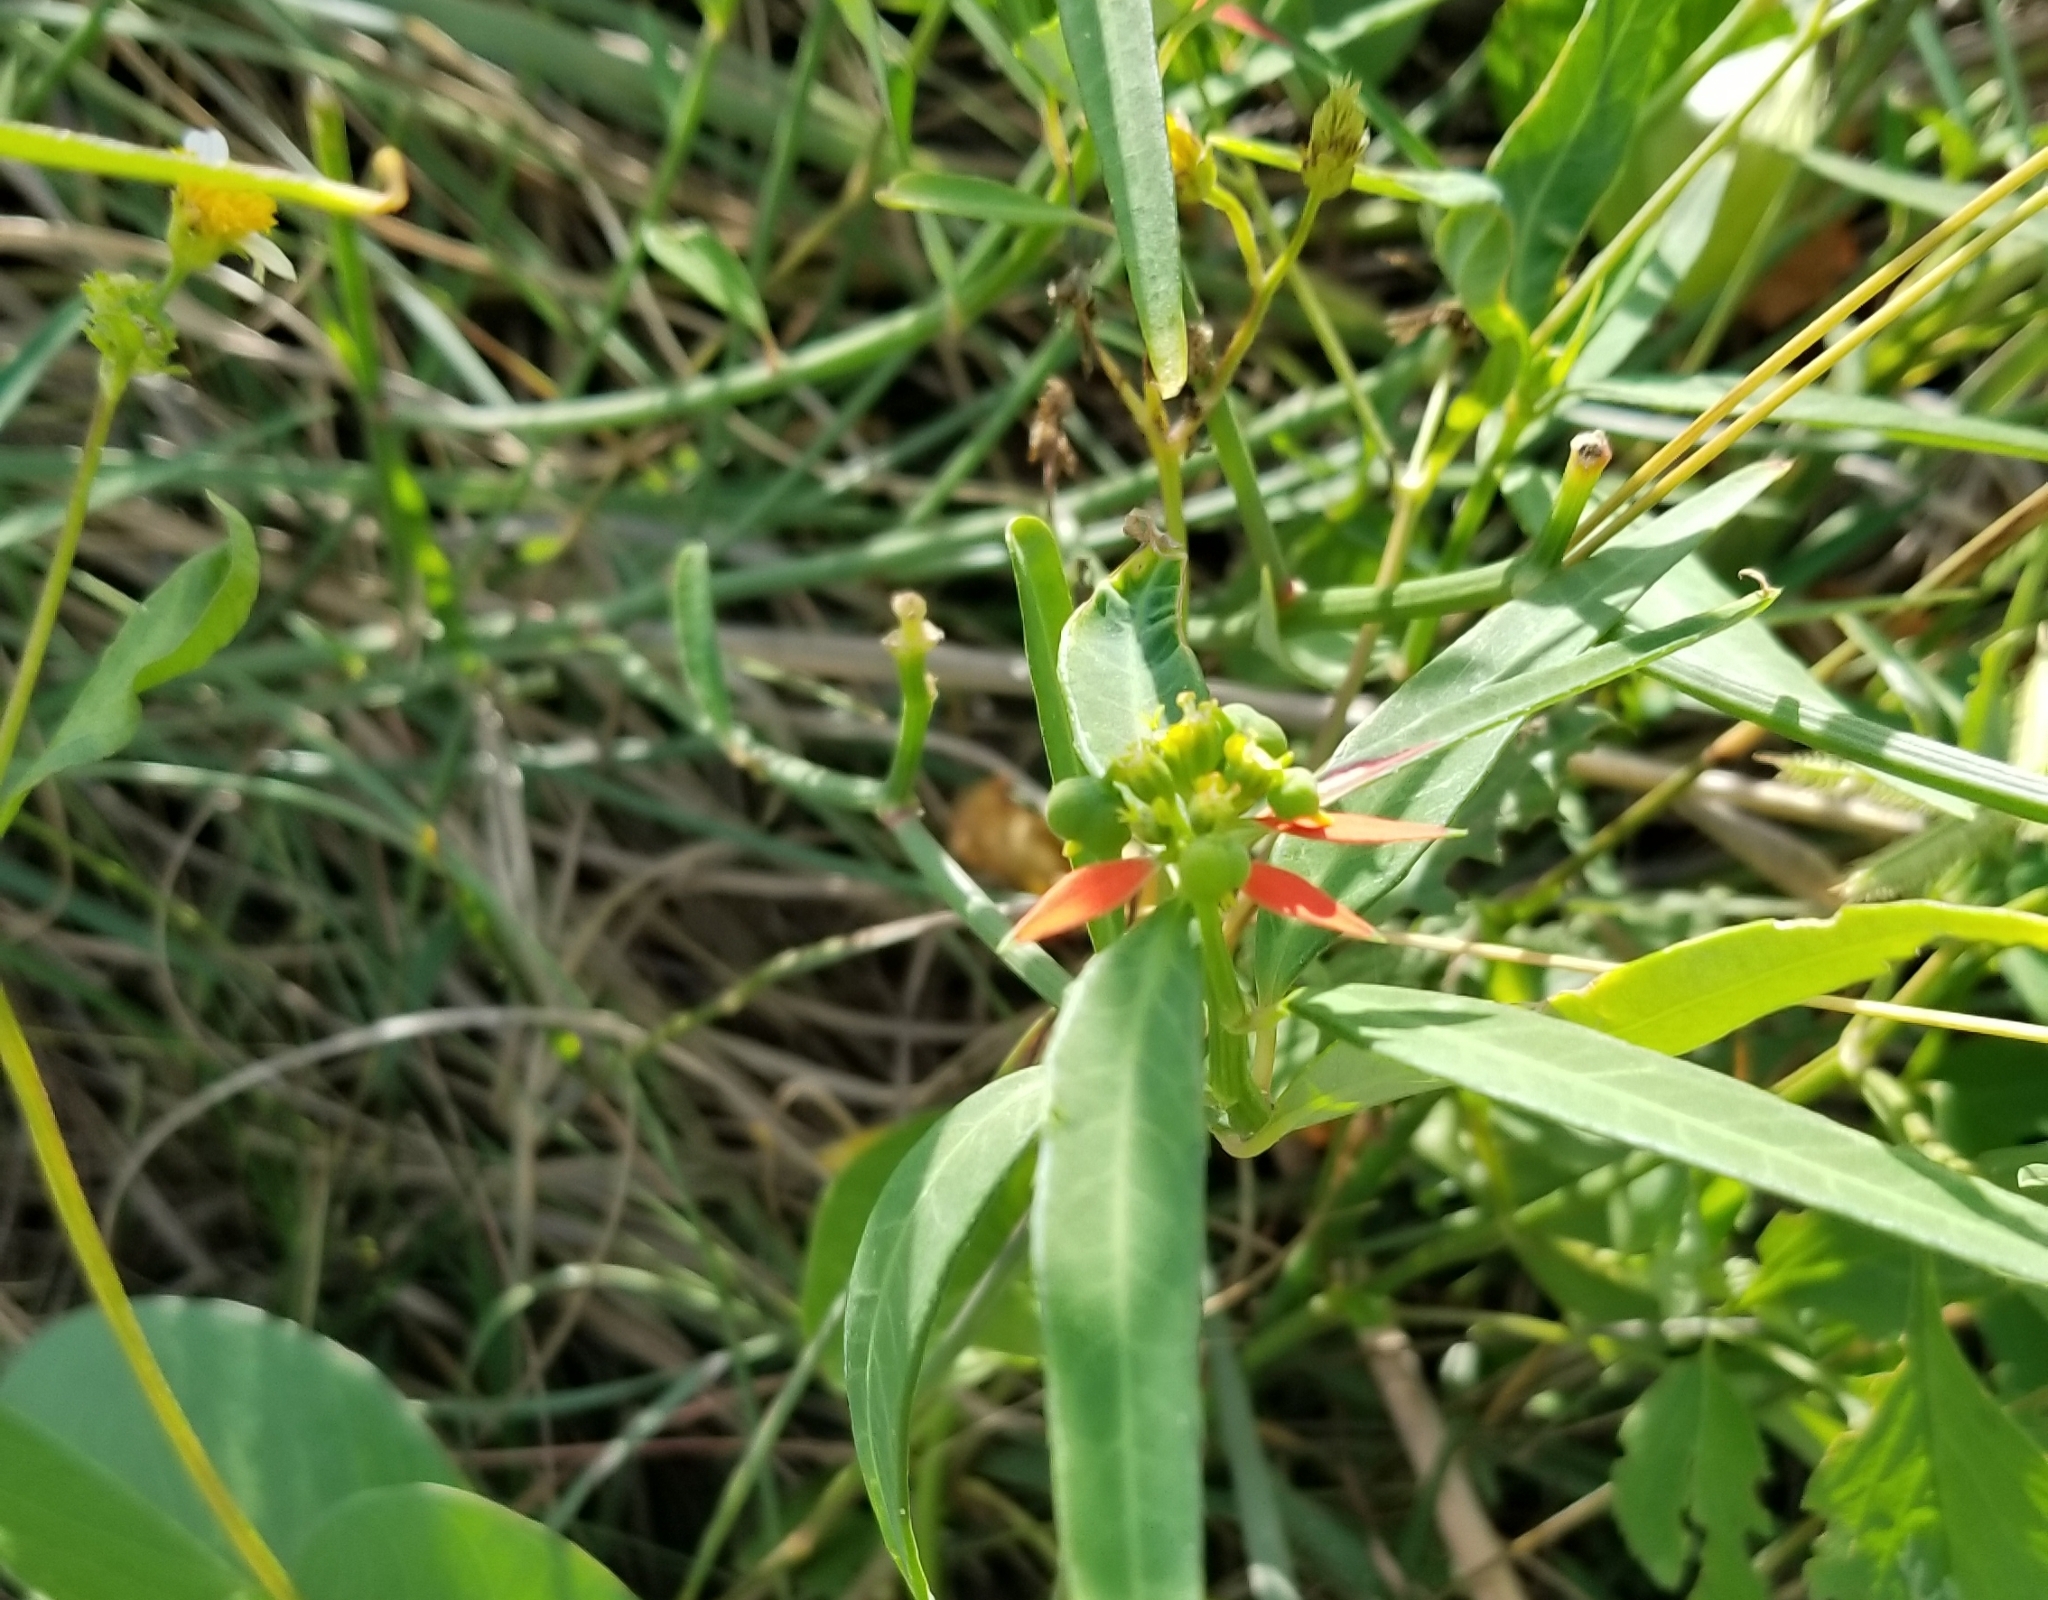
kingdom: Plantae
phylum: Tracheophyta
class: Magnoliopsida
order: Malpighiales
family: Euphorbiaceae
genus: Euphorbia
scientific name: Euphorbia heterophylla
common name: Mexican fireplant
